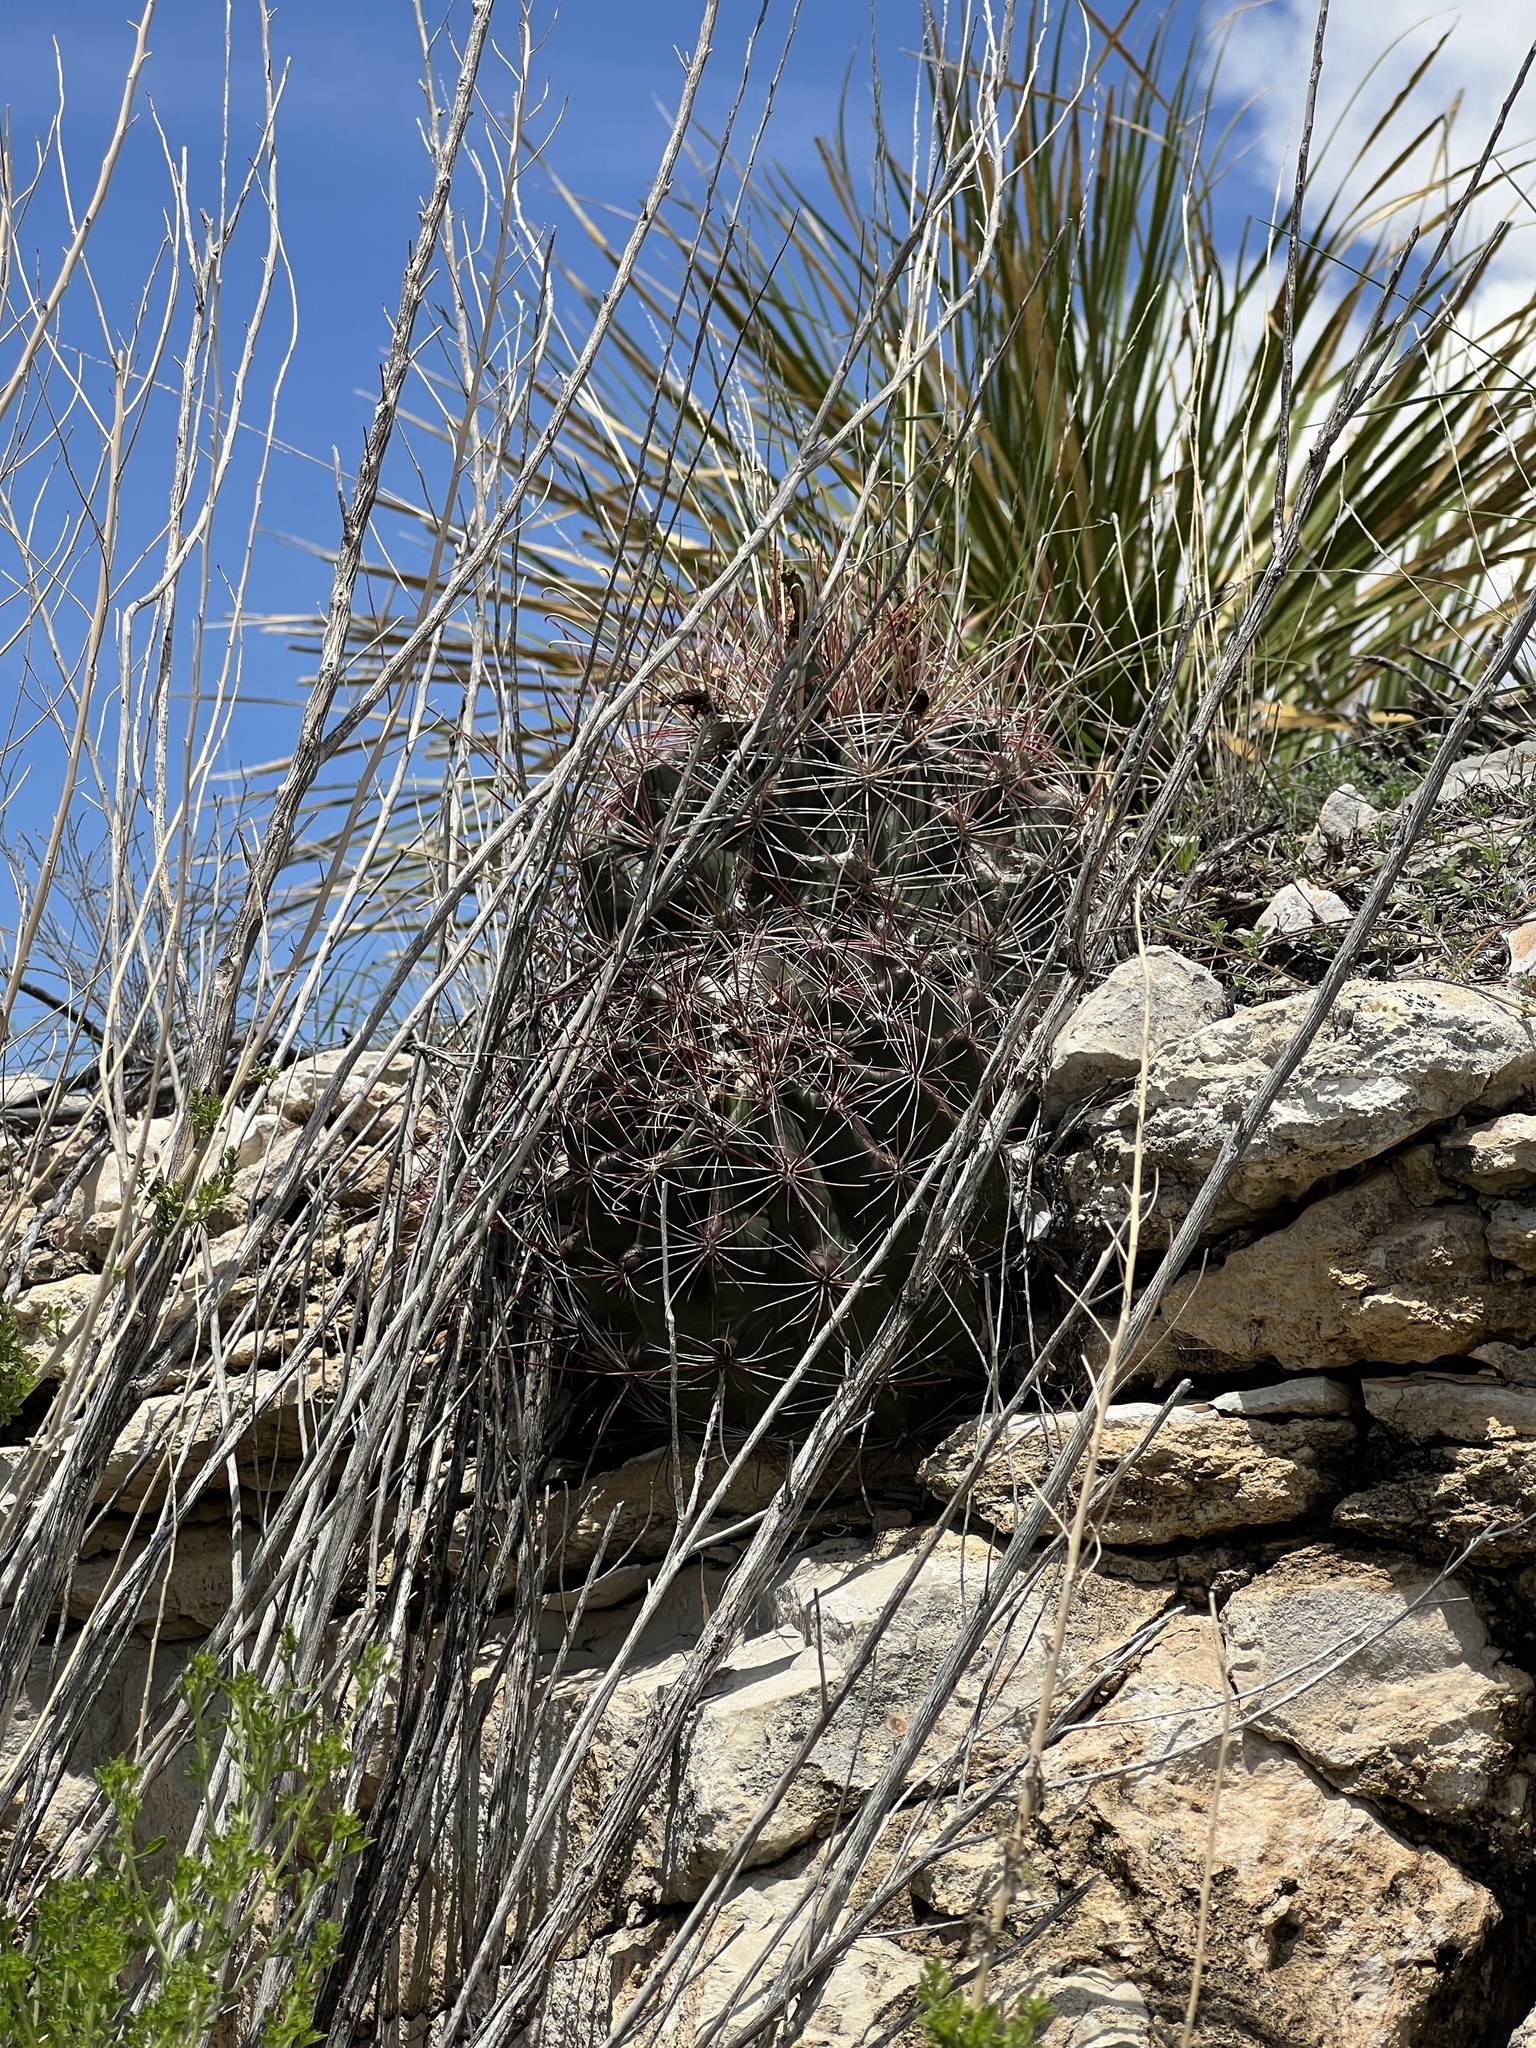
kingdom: Plantae
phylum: Tracheophyta
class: Magnoliopsida
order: Caryophyllales
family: Cactaceae
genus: Bisnaga
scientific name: Bisnaga hamatacantha
